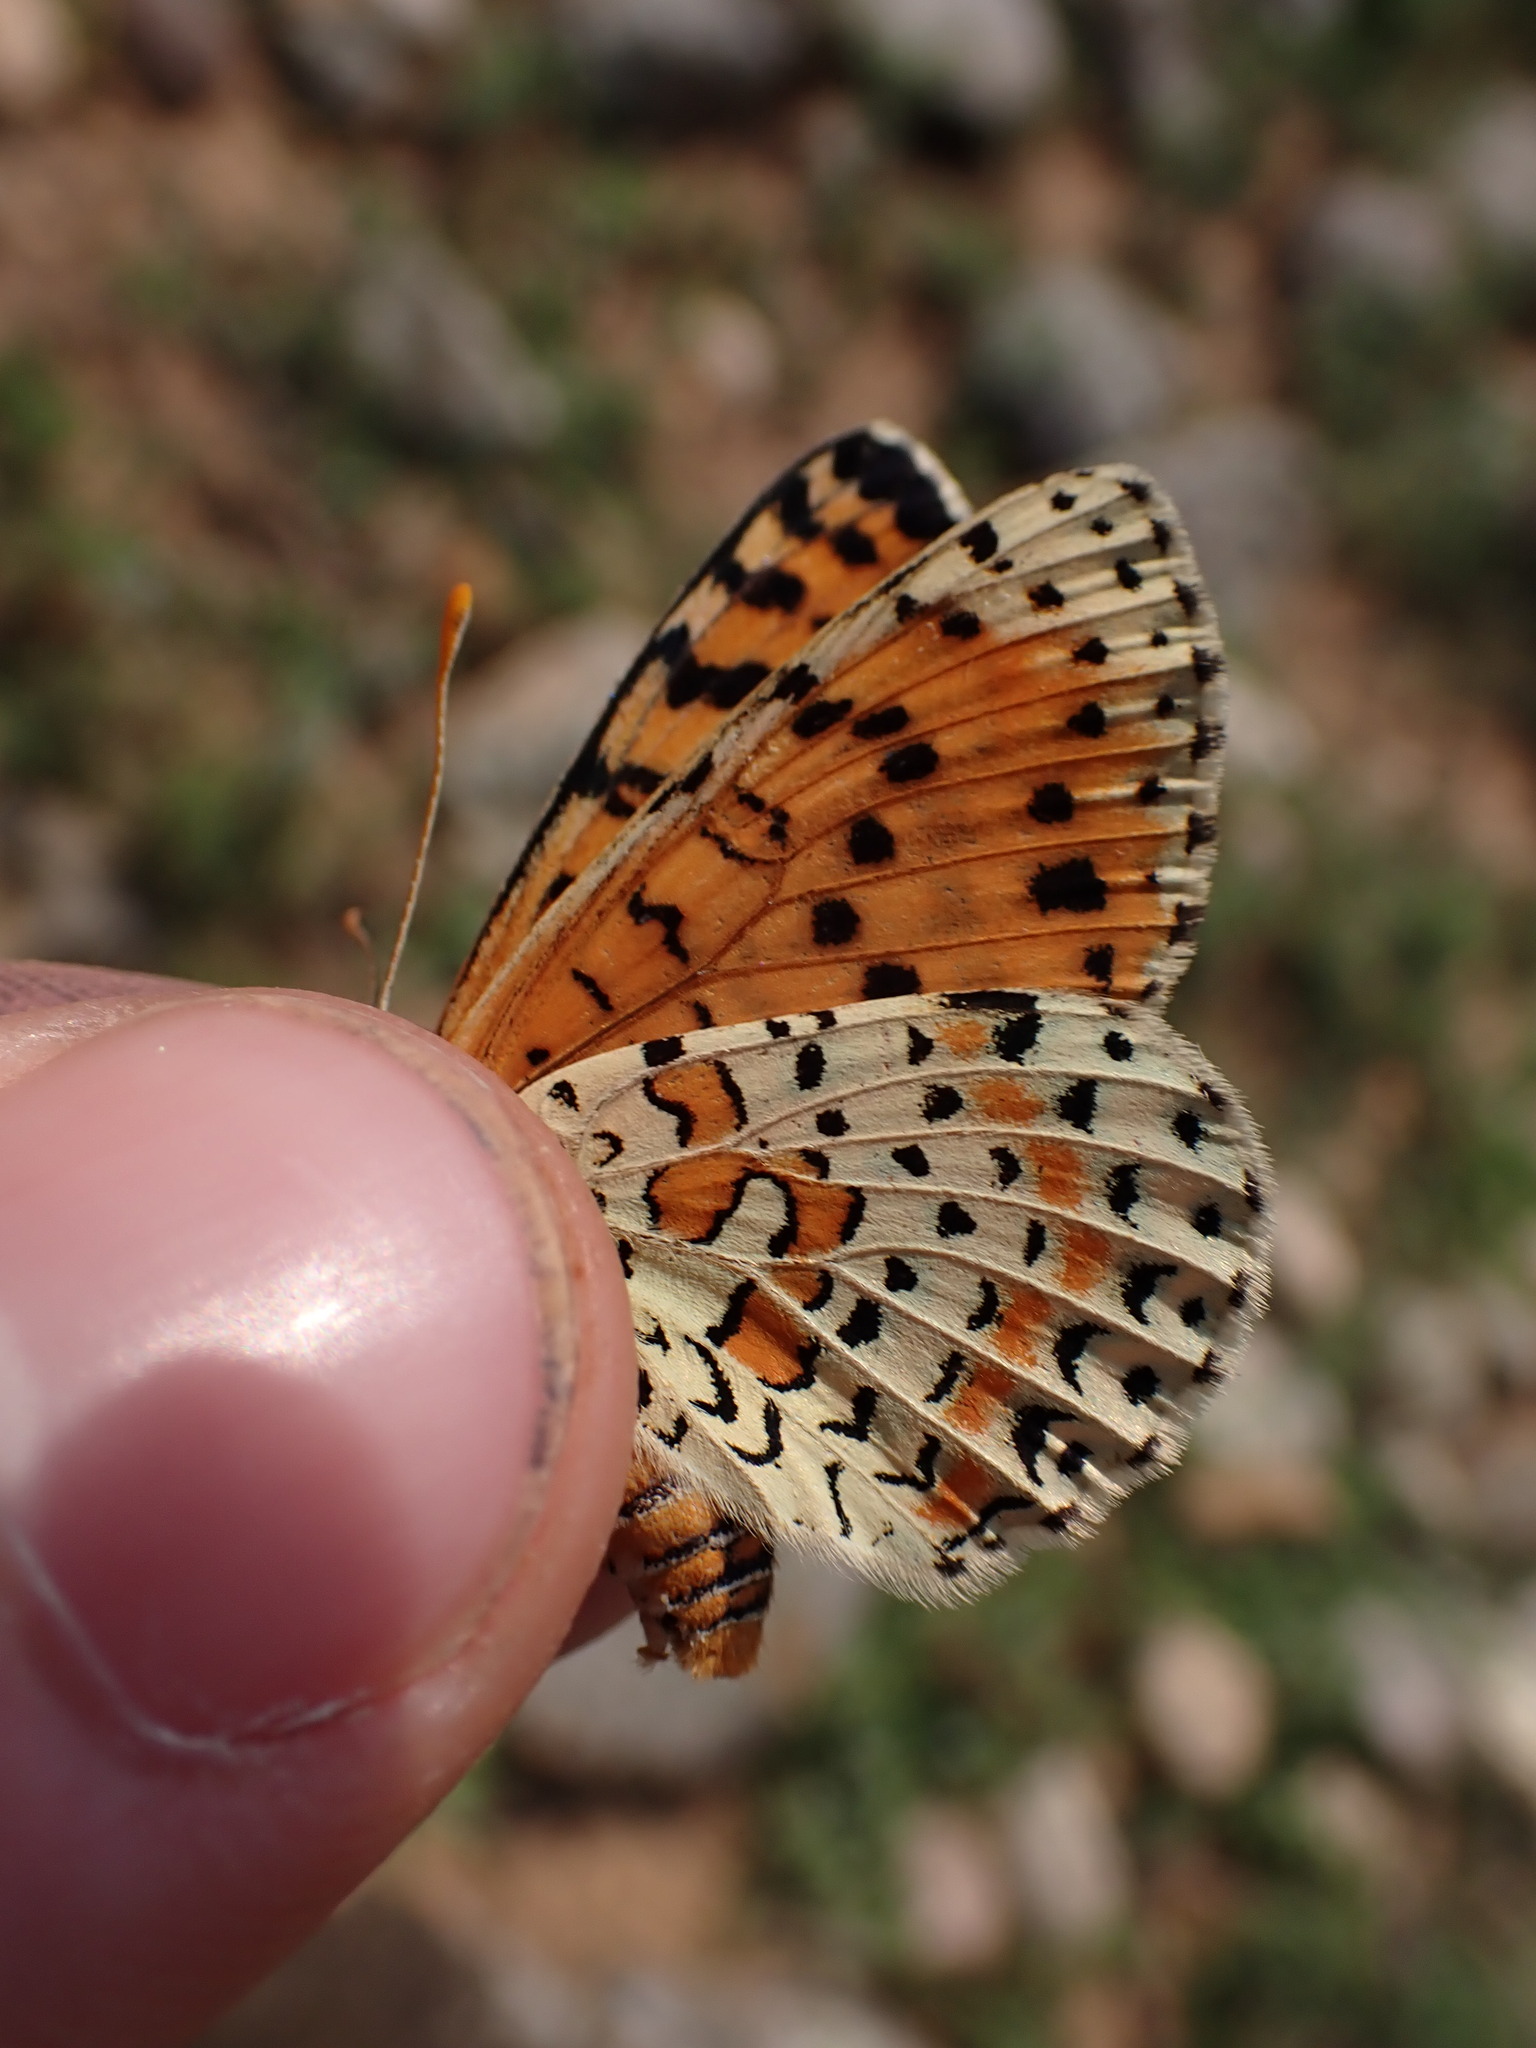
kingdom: Animalia
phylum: Arthropoda
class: Insecta
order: Lepidoptera
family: Nymphalidae
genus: Melitaea
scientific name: Melitaea didyma
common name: Spotted fritillary
